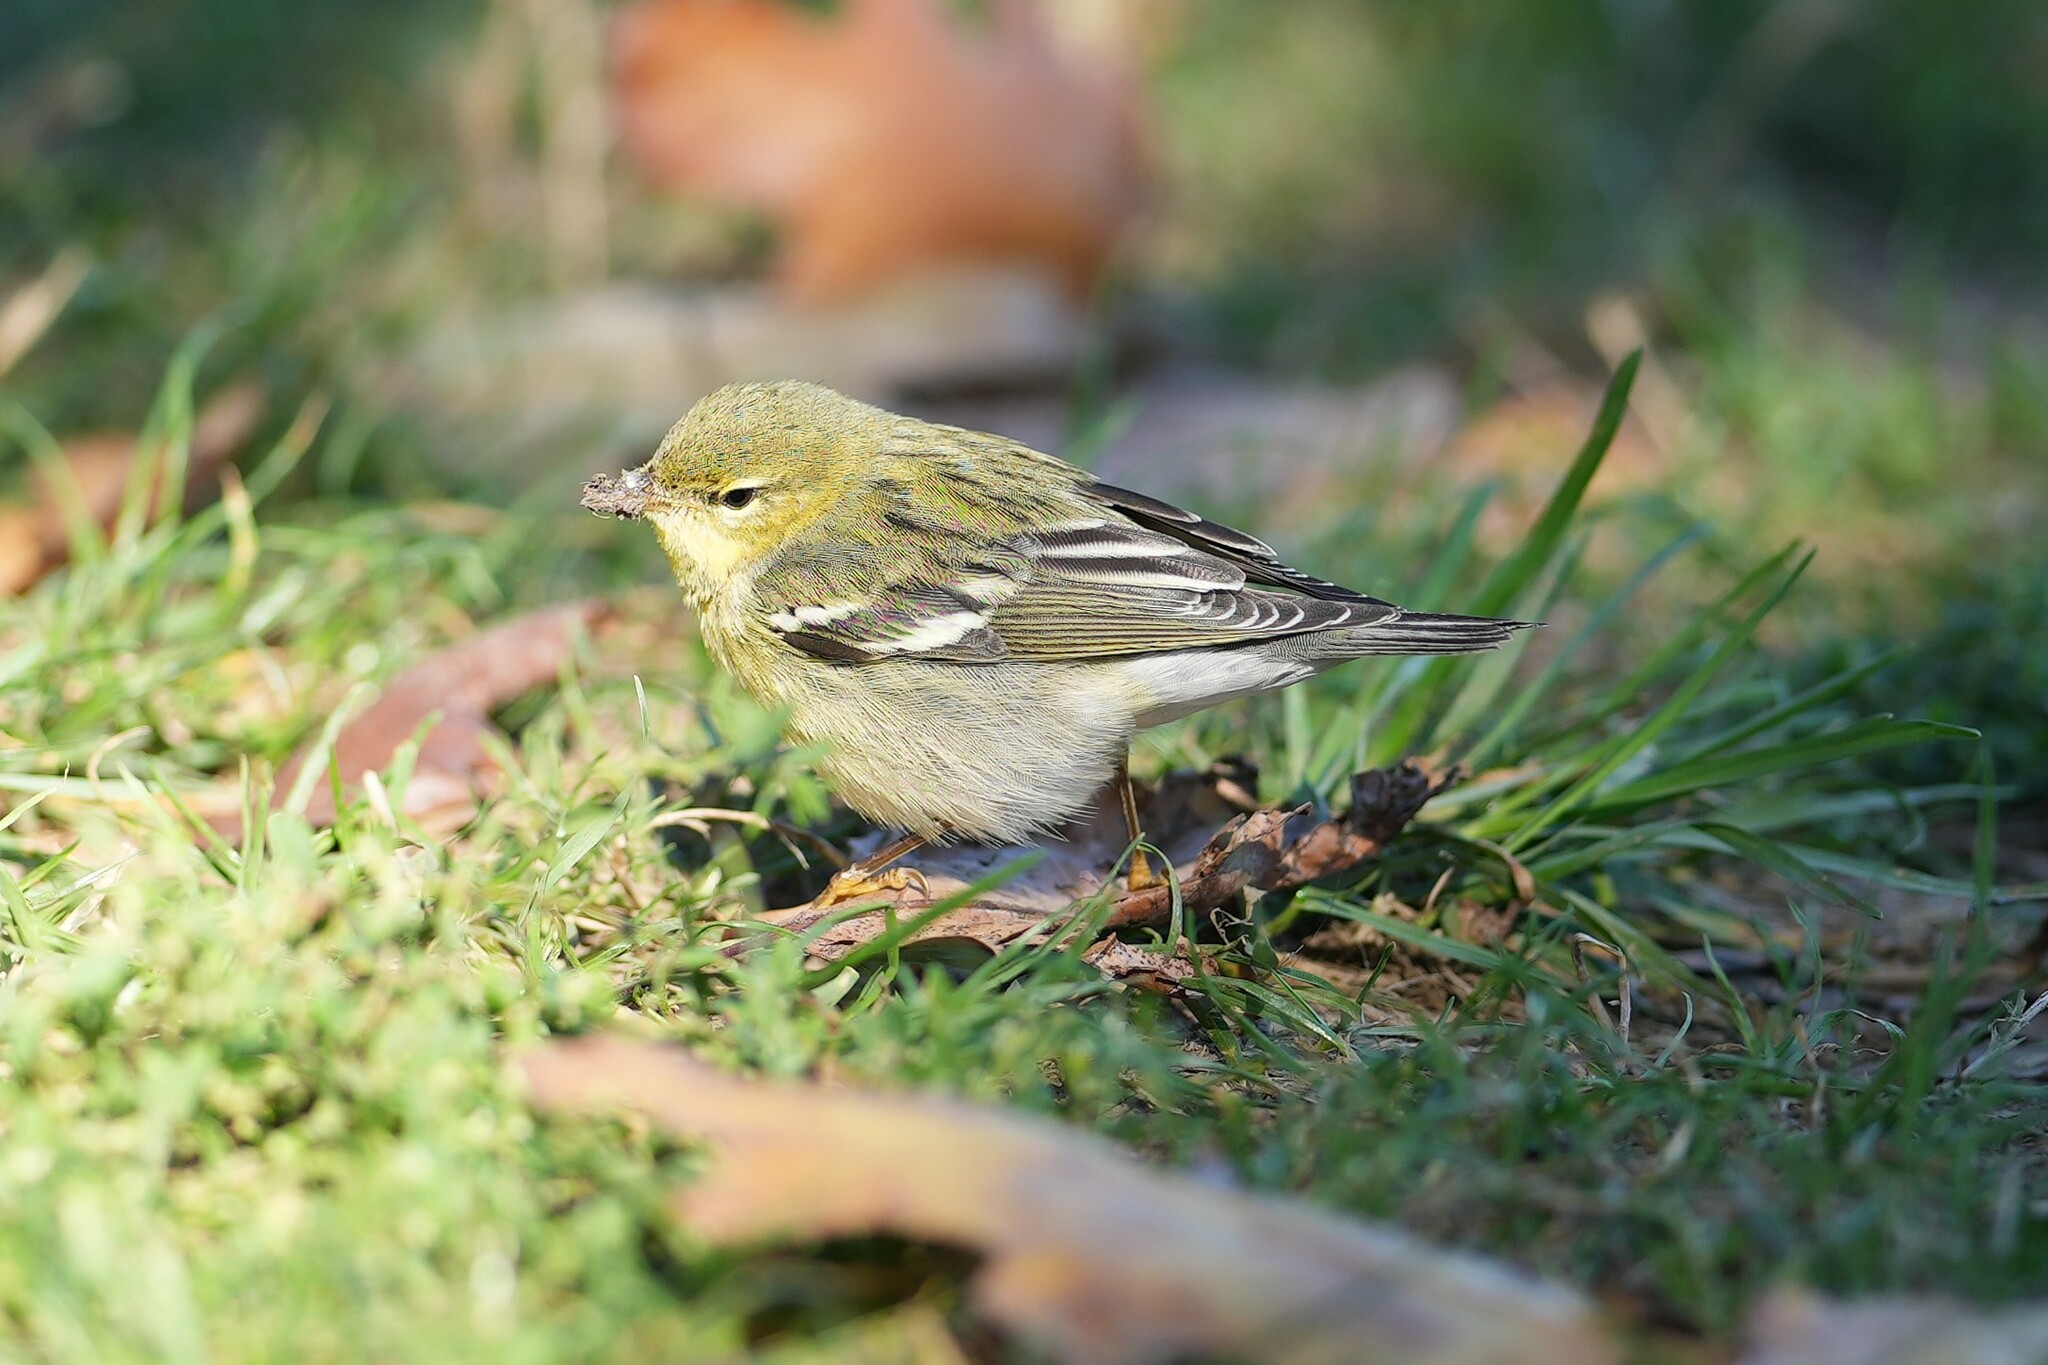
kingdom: Animalia
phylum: Chordata
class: Aves
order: Passeriformes
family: Parulidae
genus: Setophaga
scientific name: Setophaga striata
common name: Blackpoll warbler
